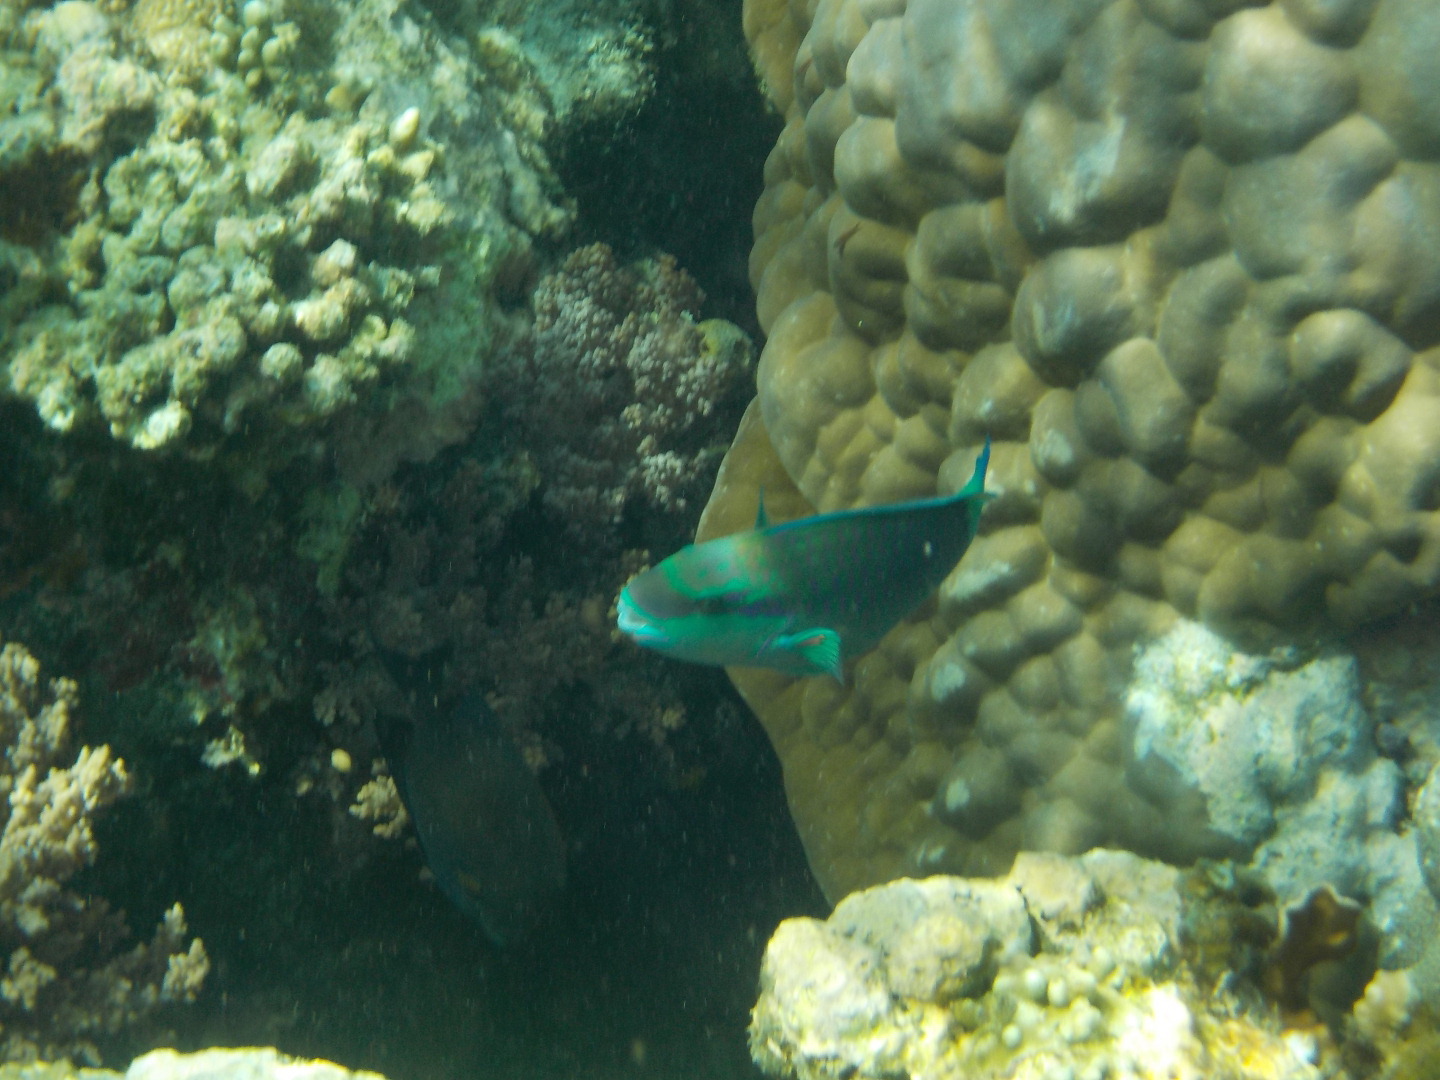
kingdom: Animalia
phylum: Chordata
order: Perciformes
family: Scaridae
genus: Chlorurus
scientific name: Chlorurus spilurus
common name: Bullethead parrotfish
